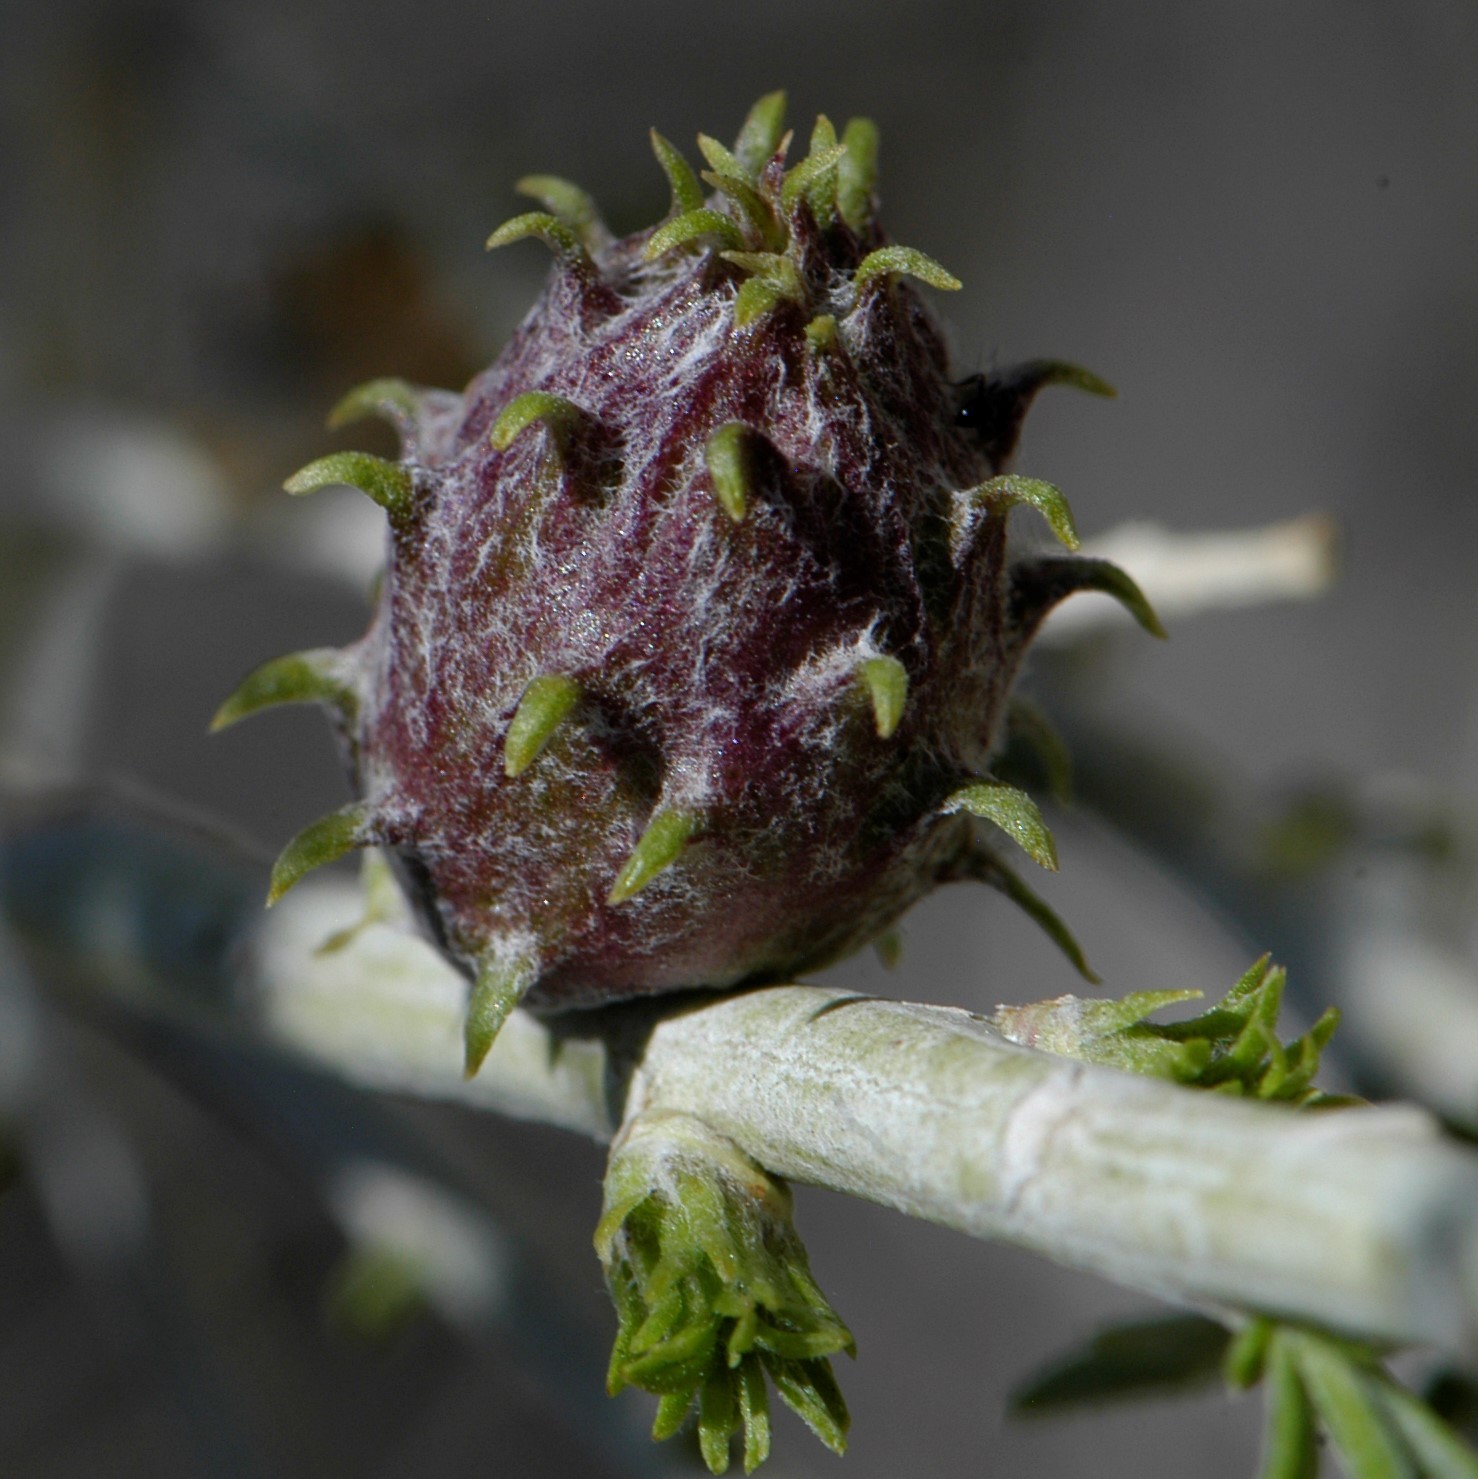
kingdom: Animalia
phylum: Arthropoda
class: Insecta
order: Diptera
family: Cecidomyiidae
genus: Rhopalomyia
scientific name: Rhopalomyia utahensis
